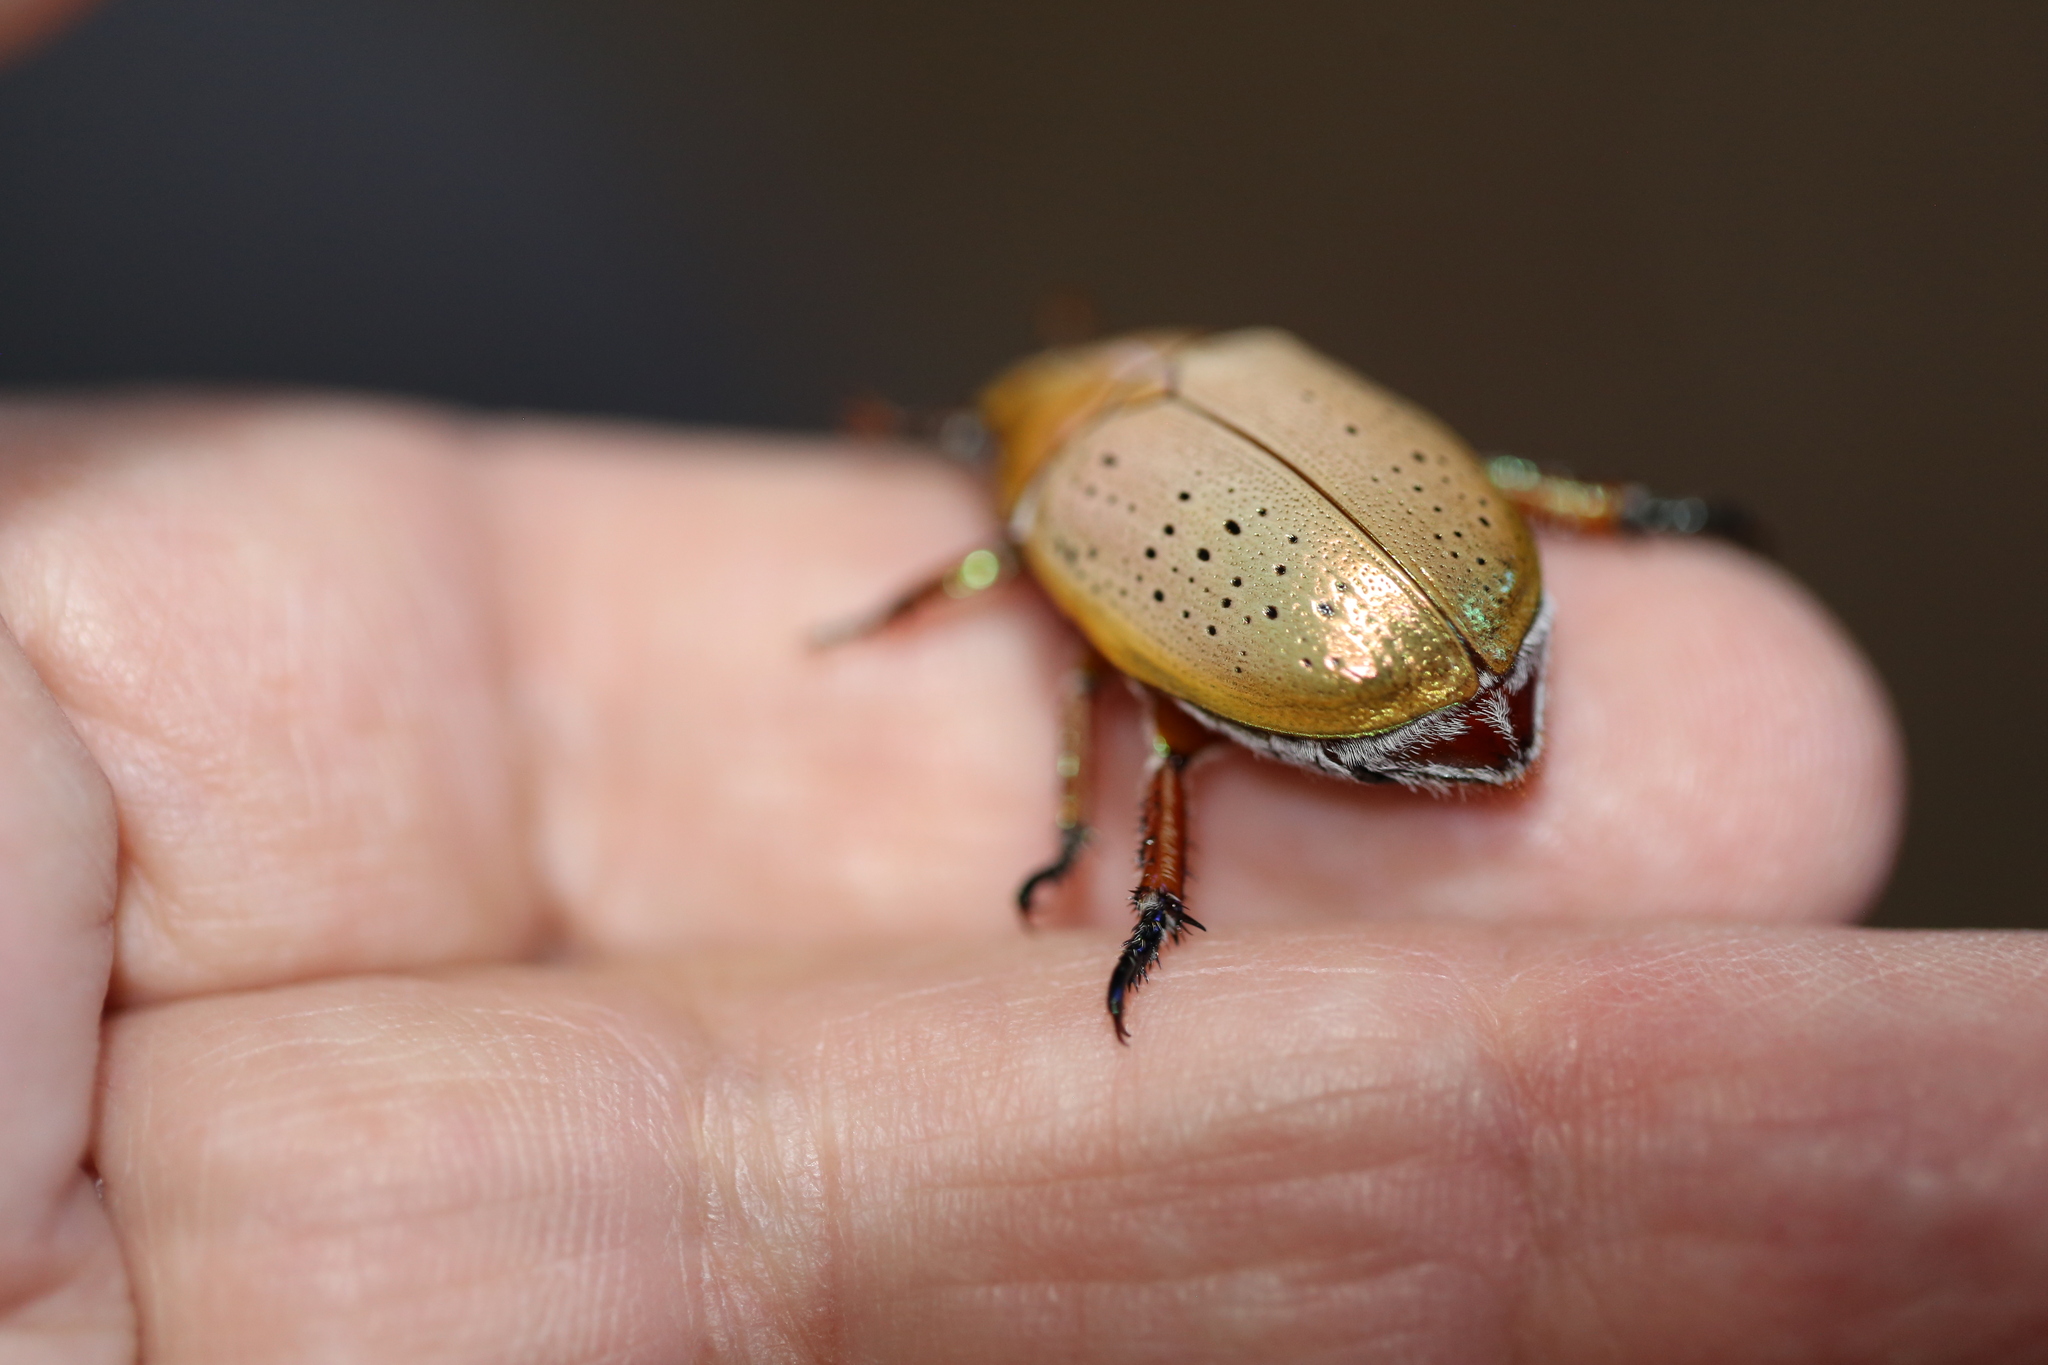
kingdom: Animalia
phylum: Arthropoda
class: Insecta
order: Coleoptera
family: Scarabaeidae
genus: Anoplognathus
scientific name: Anoplognathus porosus
